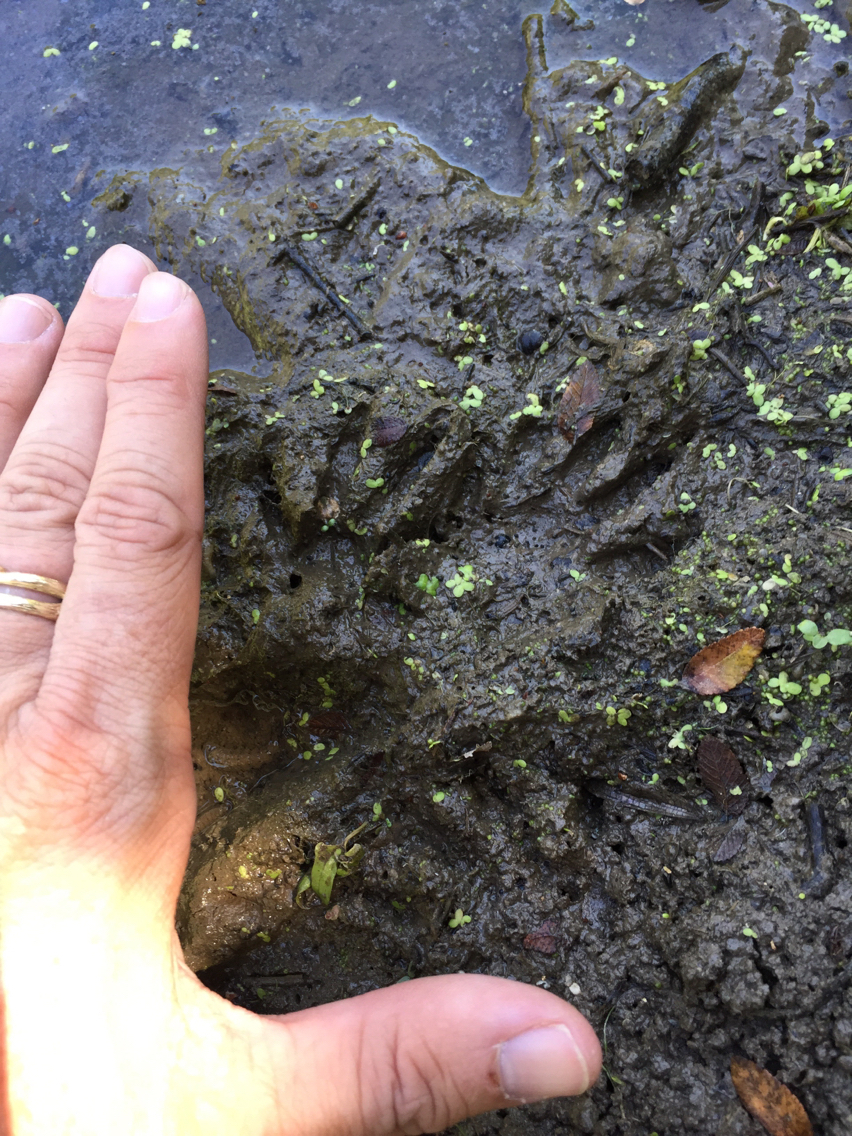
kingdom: Animalia
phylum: Chordata
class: Mammalia
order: Carnivora
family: Procyonidae
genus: Procyon
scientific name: Procyon lotor
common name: Raccoon
